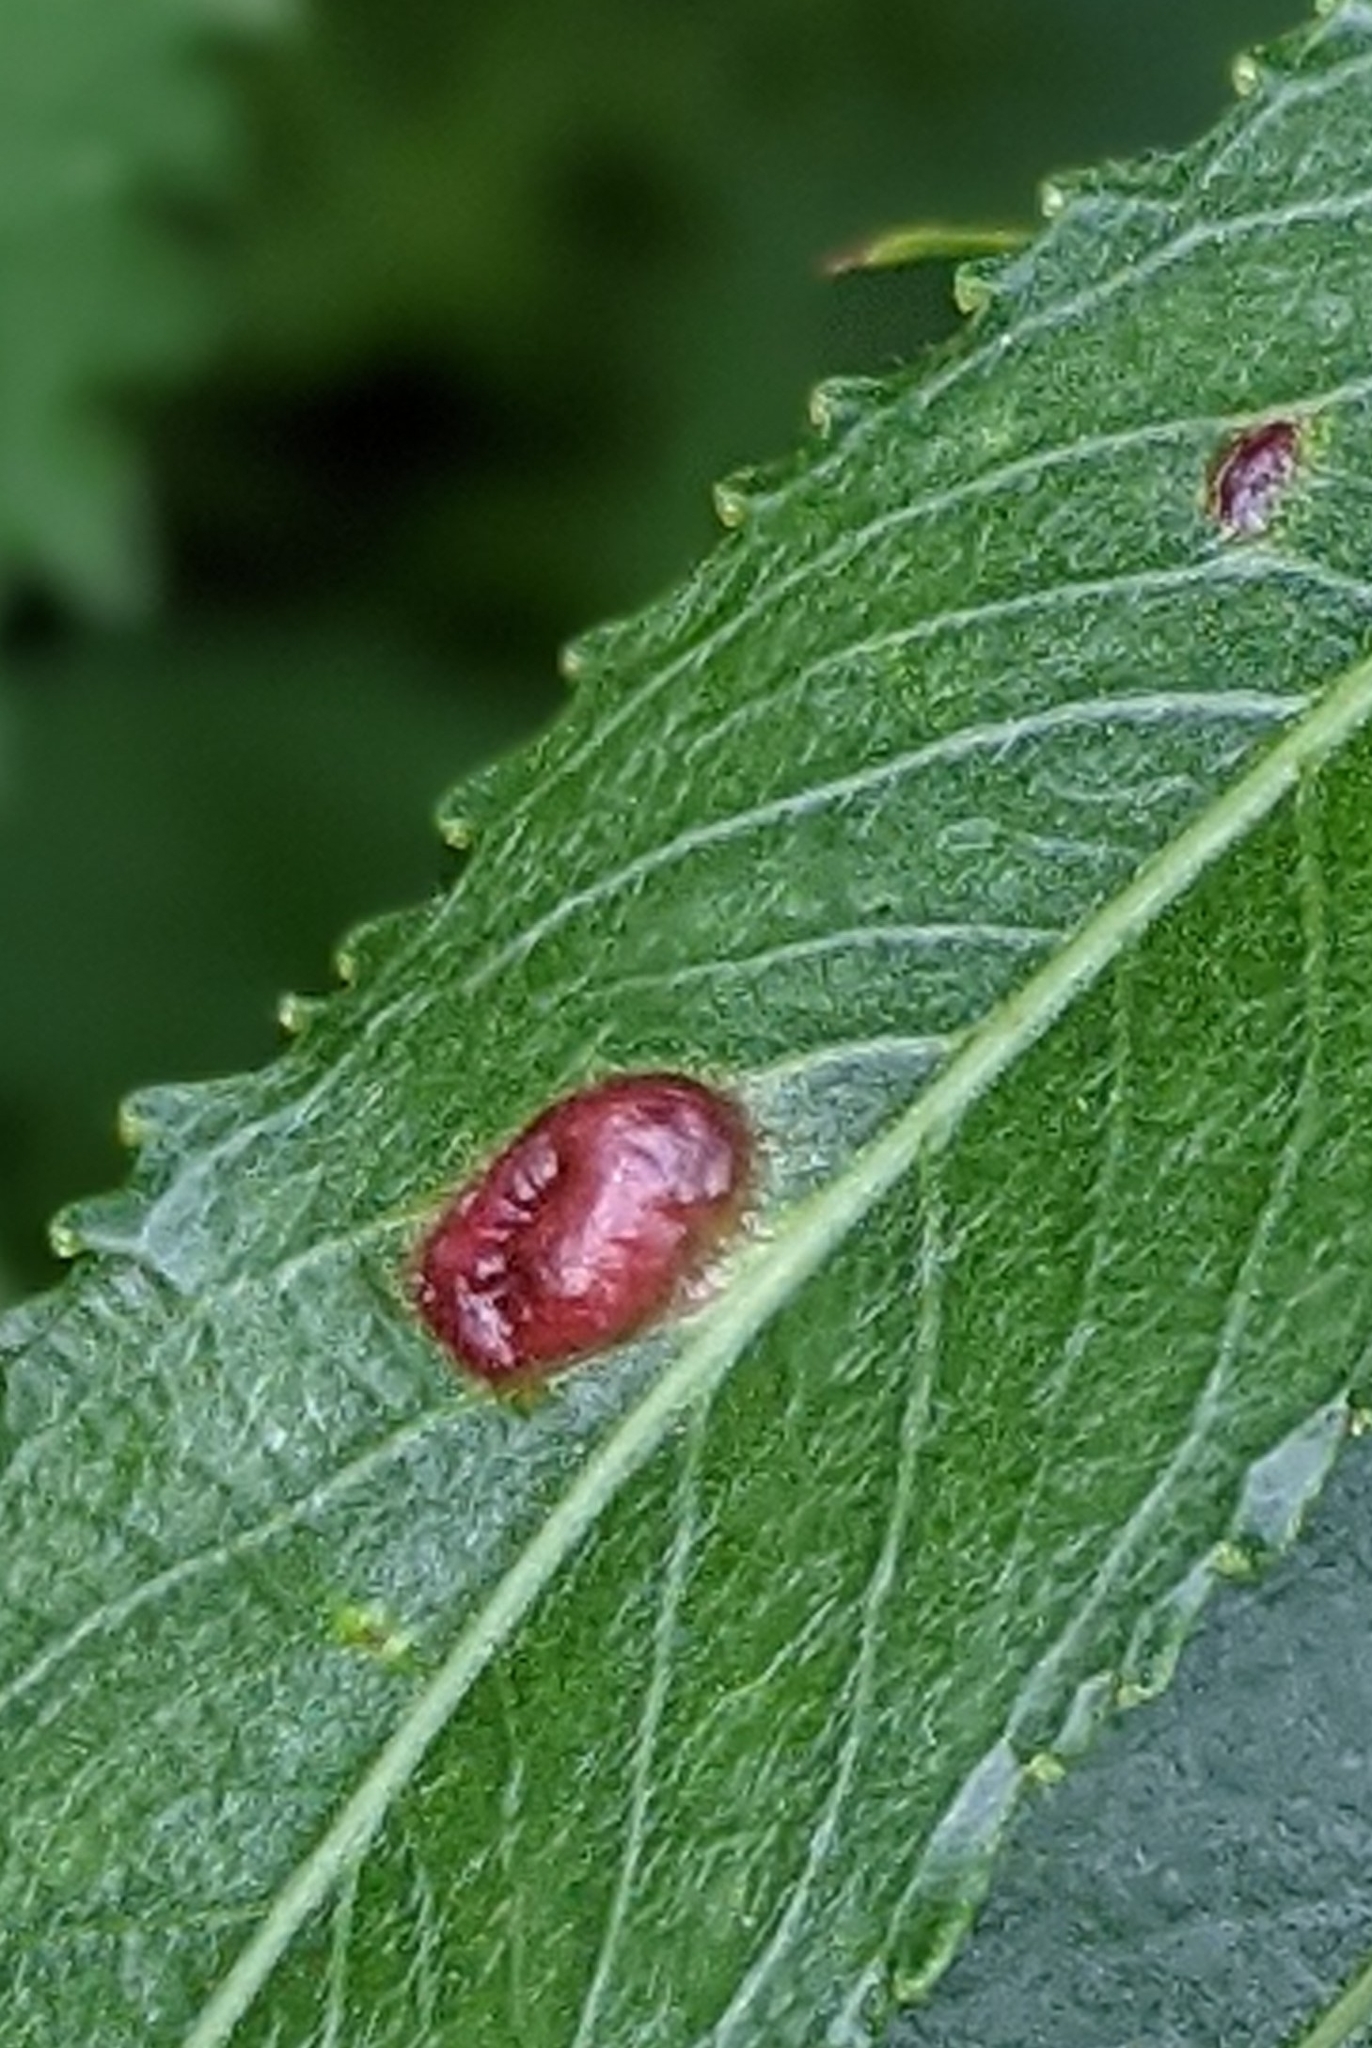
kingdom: Animalia
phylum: Arthropoda
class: Insecta
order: Hymenoptera
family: Tenthredinidae
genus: Pontania
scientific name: Pontania proxima
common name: Common sawfly
